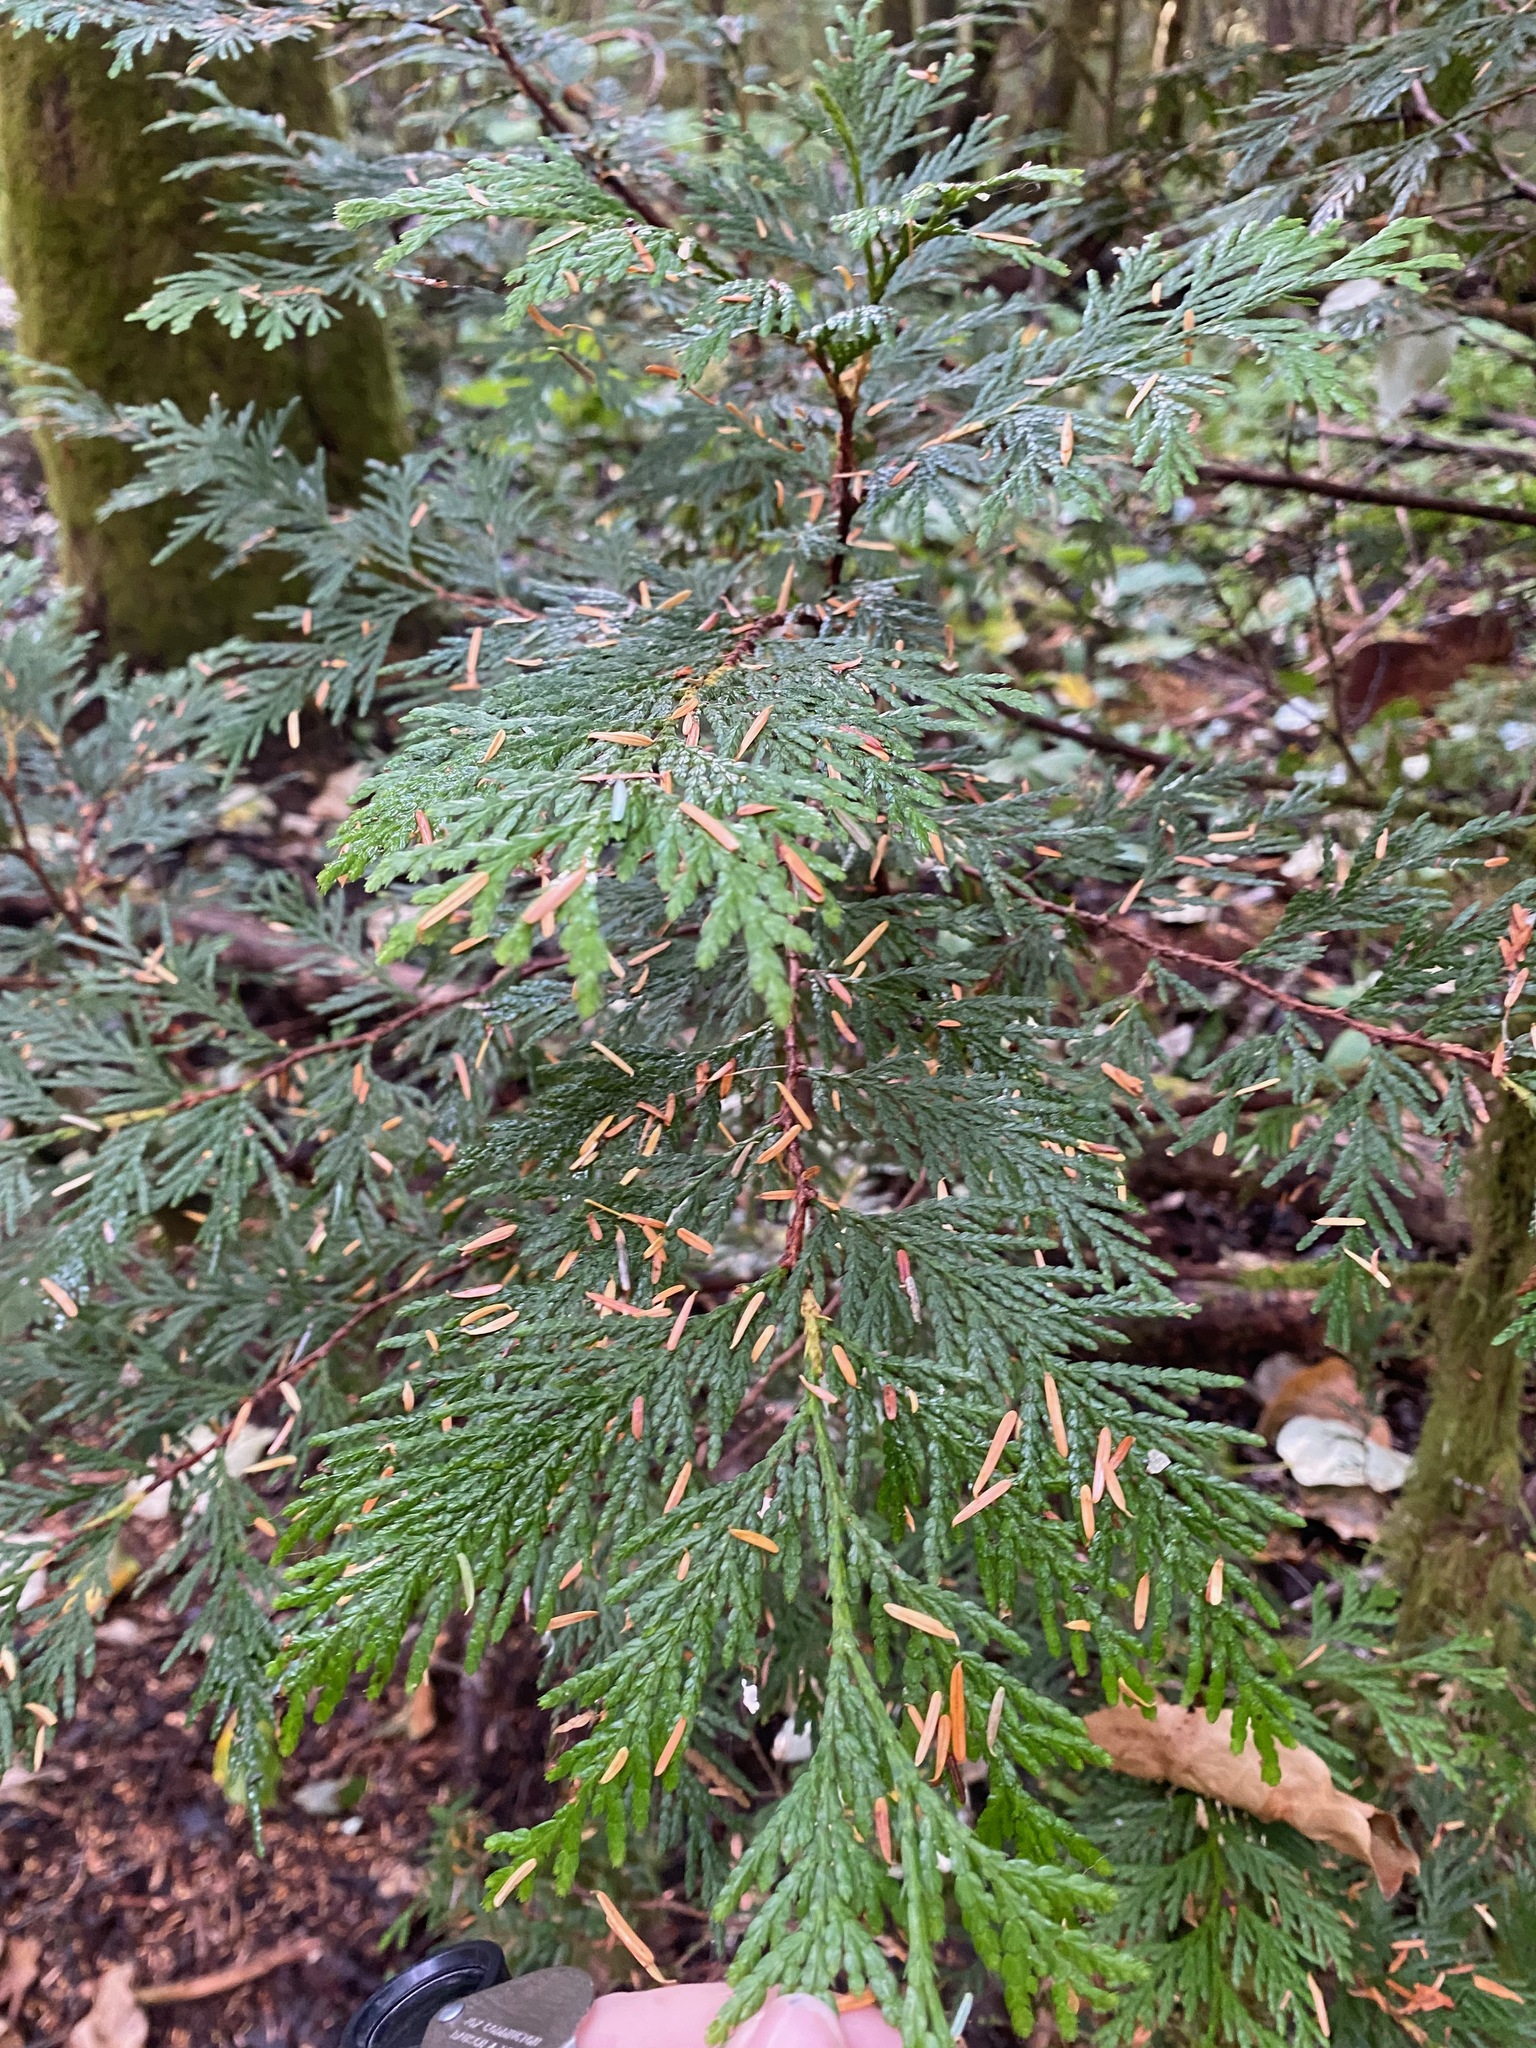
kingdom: Plantae
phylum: Tracheophyta
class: Pinopsida
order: Pinales
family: Cupressaceae
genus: Thuja
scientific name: Thuja plicata
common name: Western red-cedar
